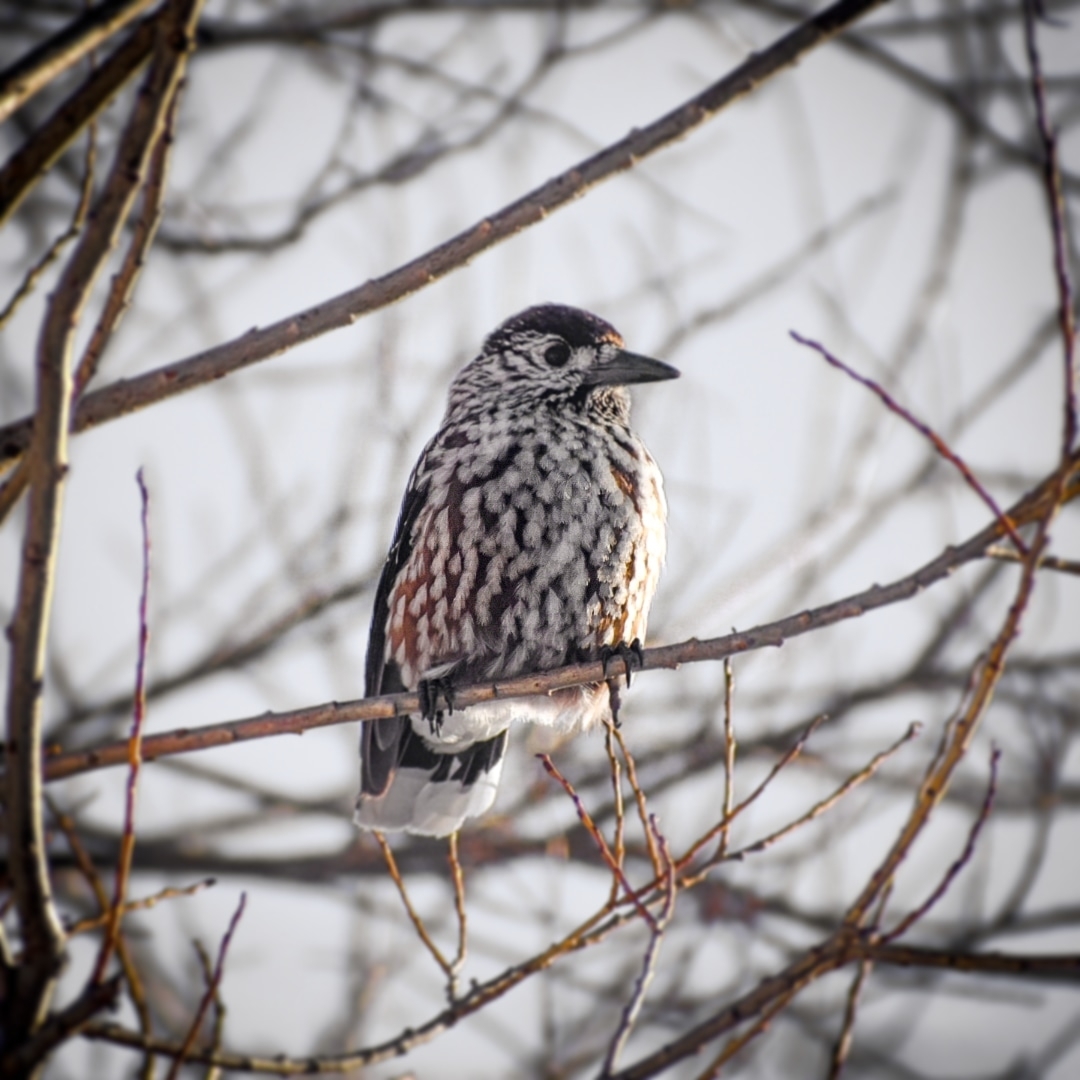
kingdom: Animalia
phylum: Chordata
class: Aves
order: Passeriformes
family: Corvidae
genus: Nucifraga
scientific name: Nucifraga caryocatactes
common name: Spotted nutcracker
